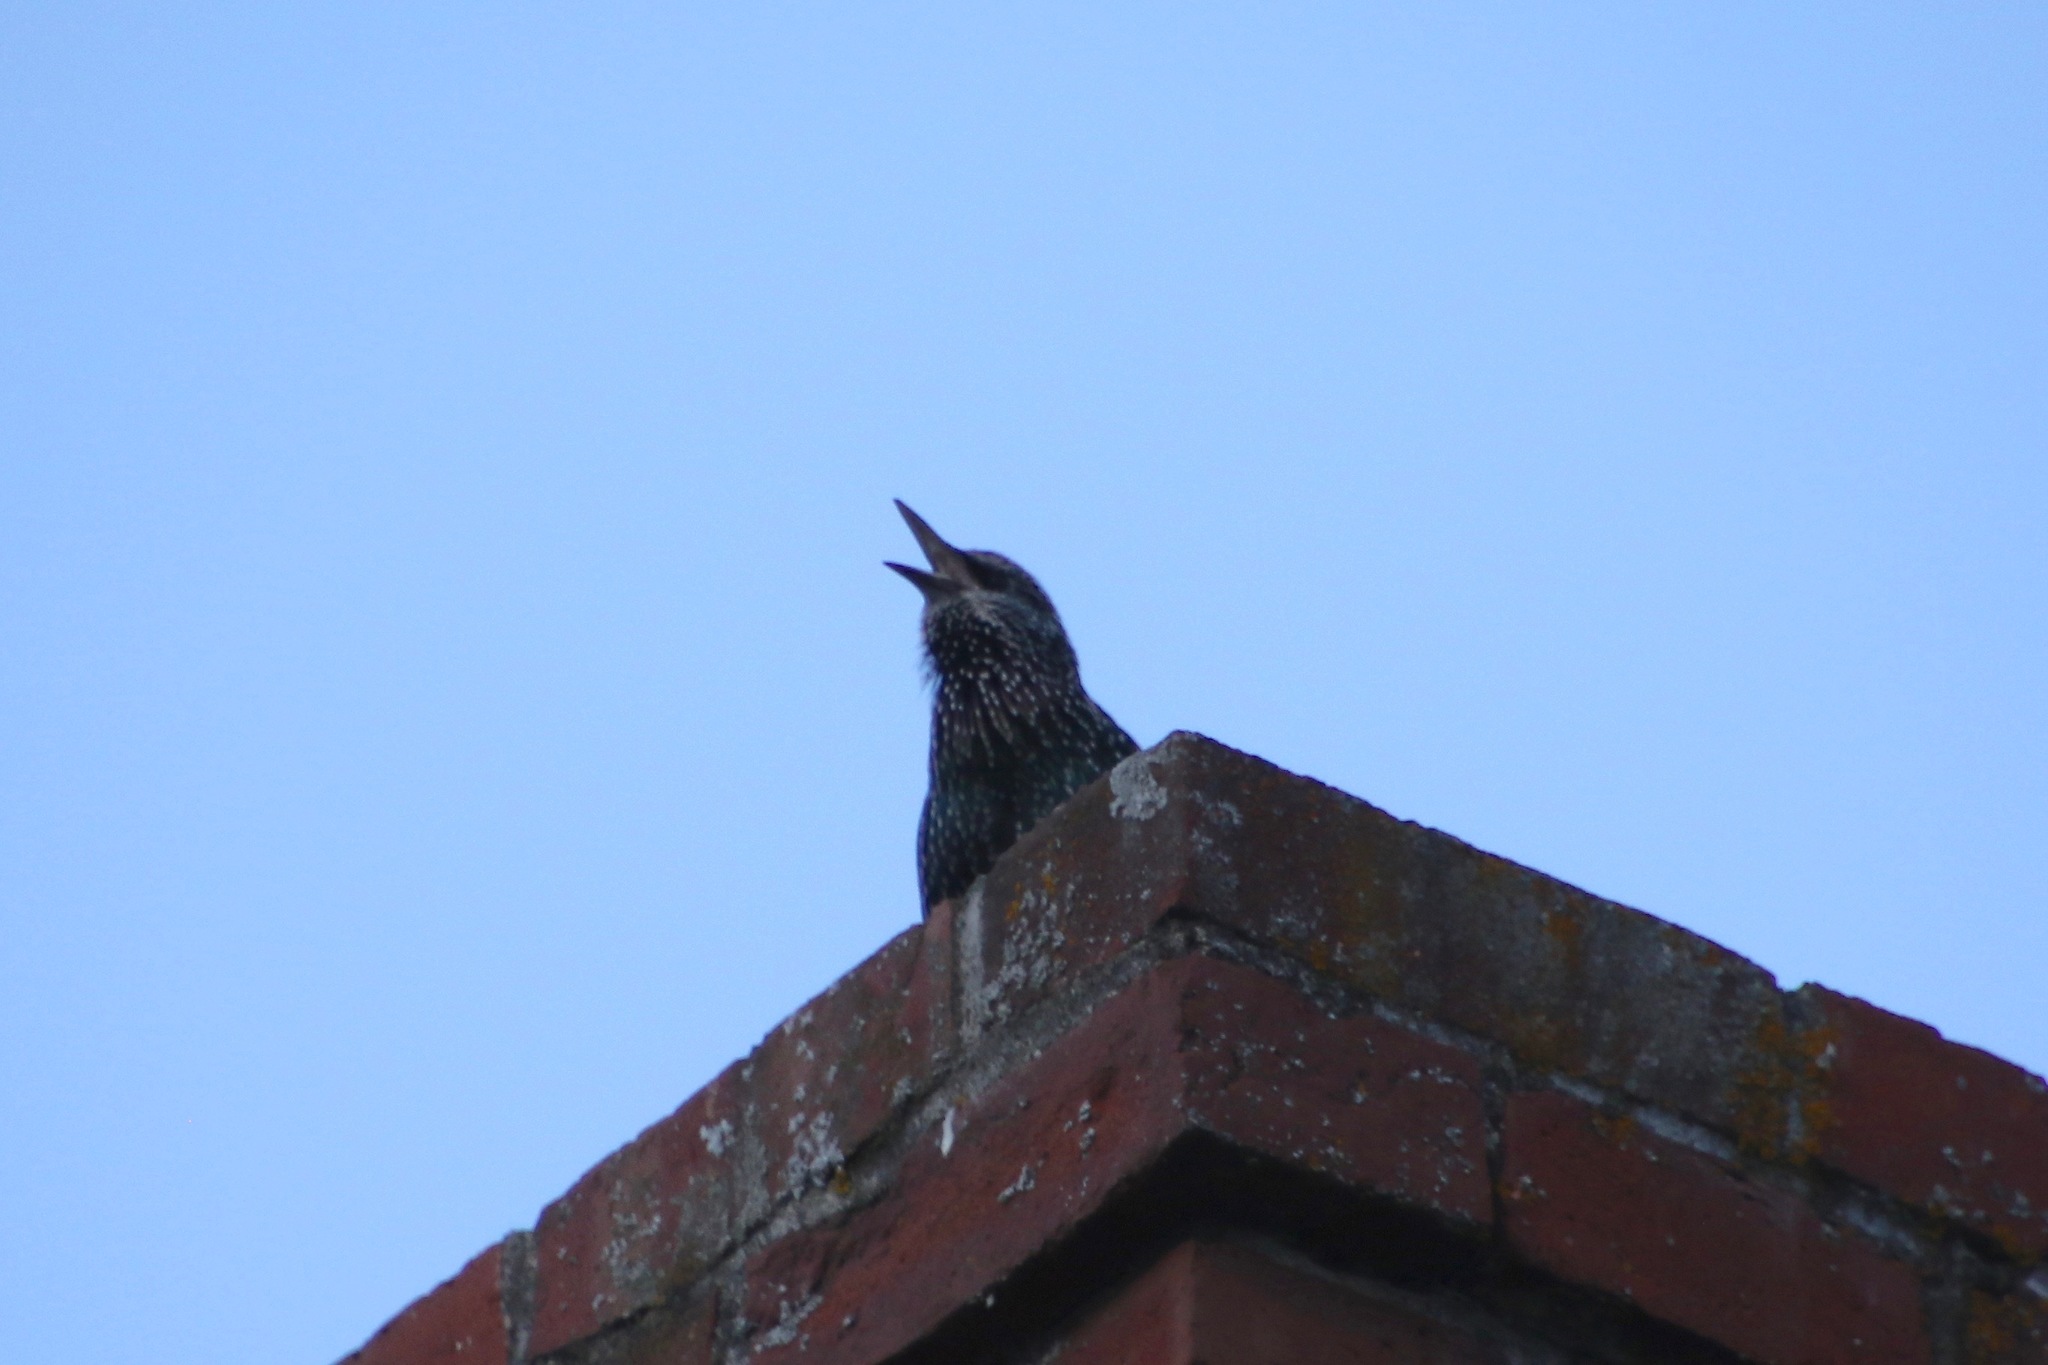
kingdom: Animalia
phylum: Chordata
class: Aves
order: Passeriformes
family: Sturnidae
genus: Sturnus
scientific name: Sturnus vulgaris
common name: Common starling
